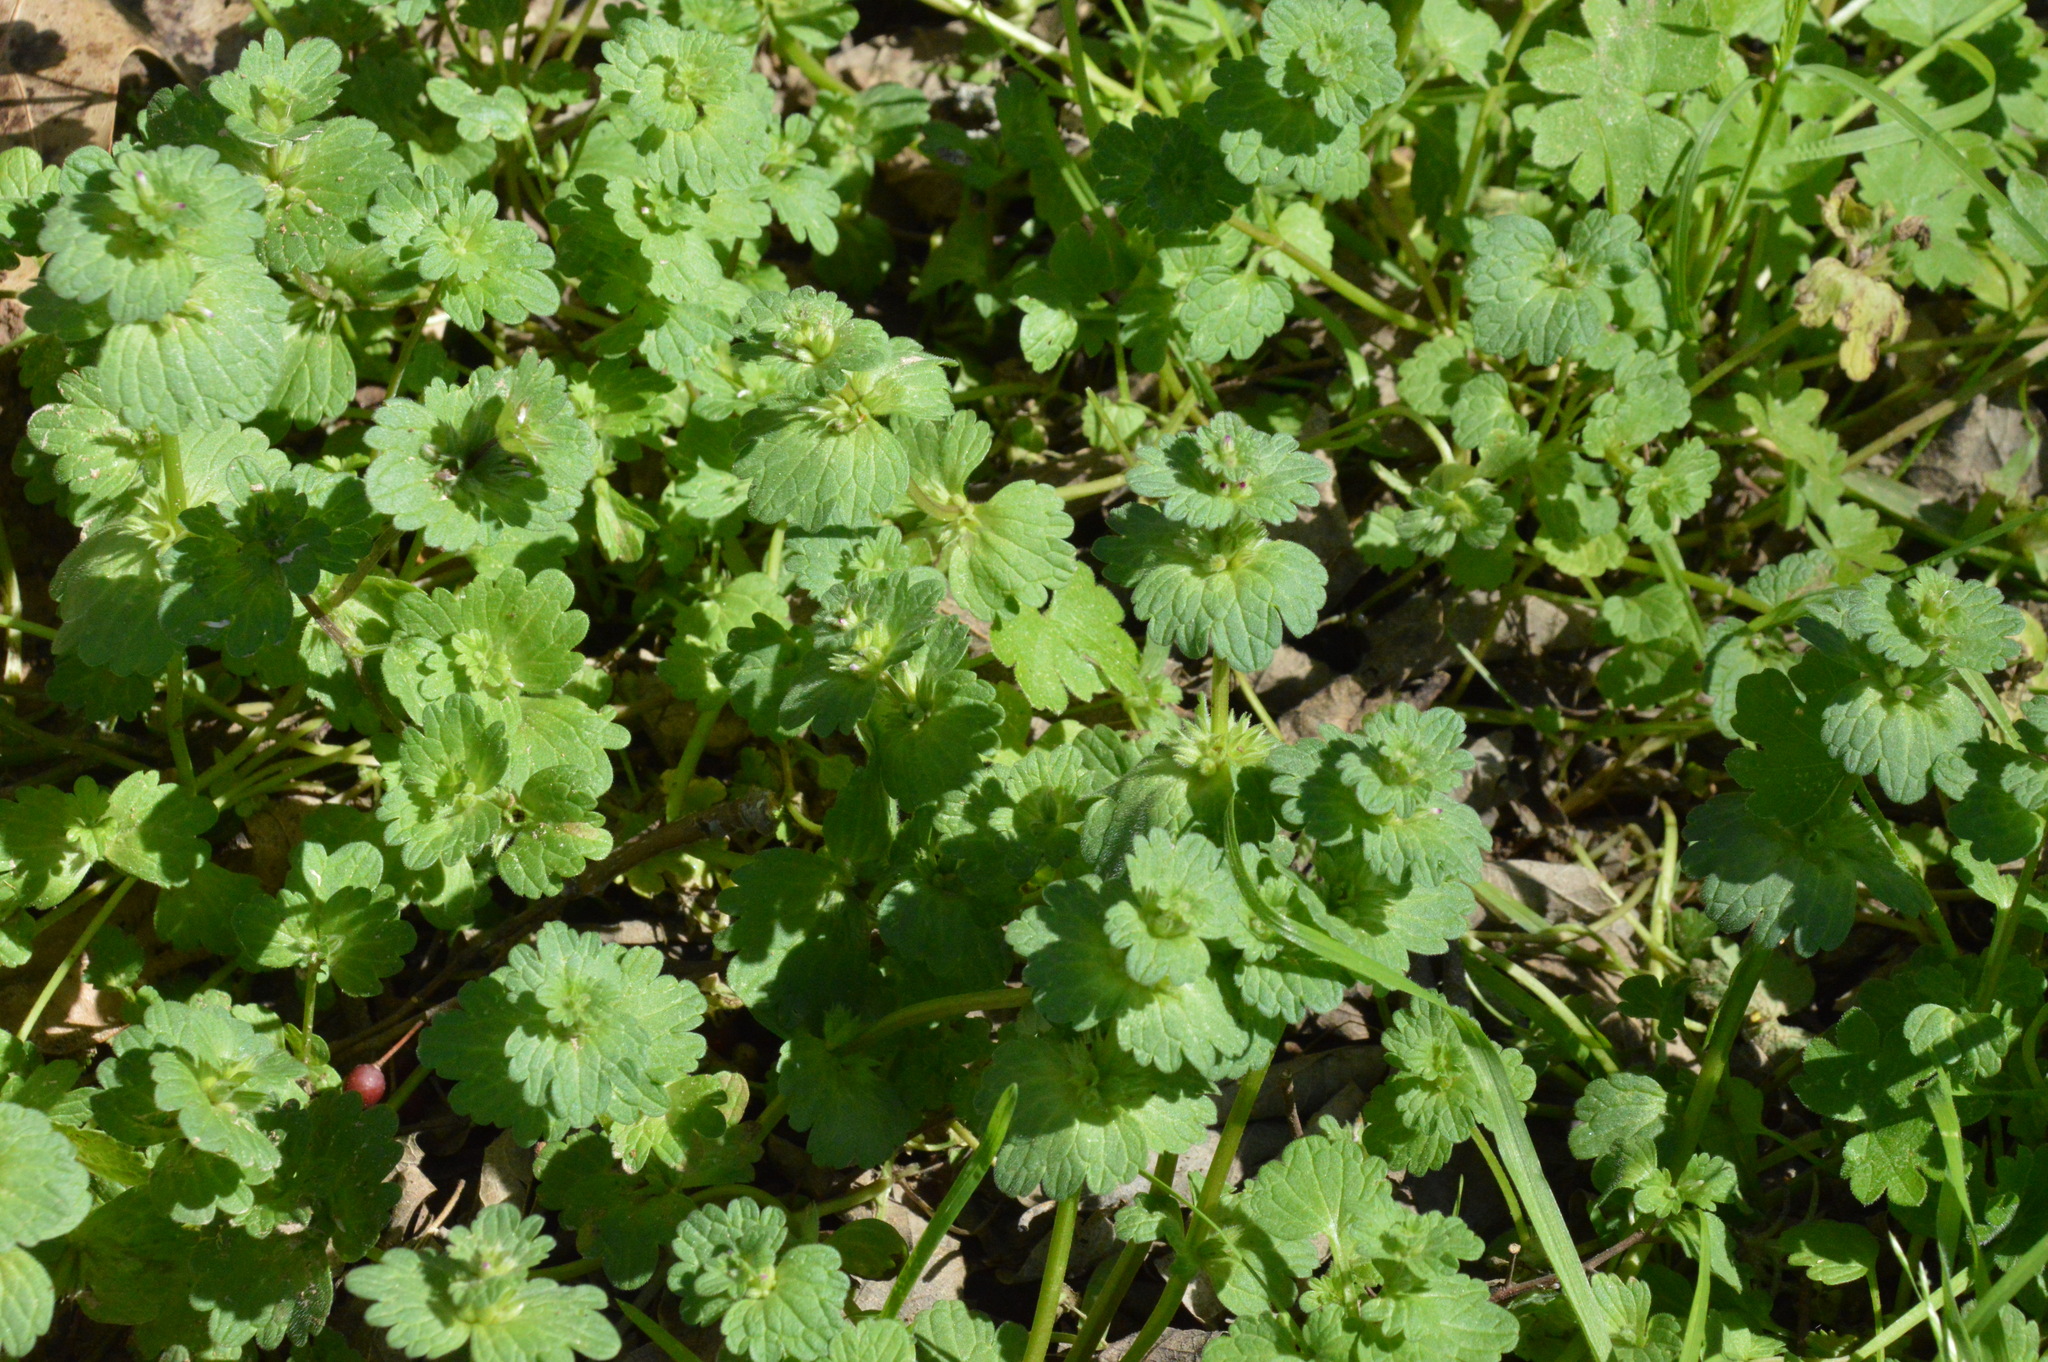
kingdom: Plantae
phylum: Tracheophyta
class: Magnoliopsida
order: Lamiales
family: Lamiaceae
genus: Lamium
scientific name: Lamium amplexicaule
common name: Henbit dead-nettle
